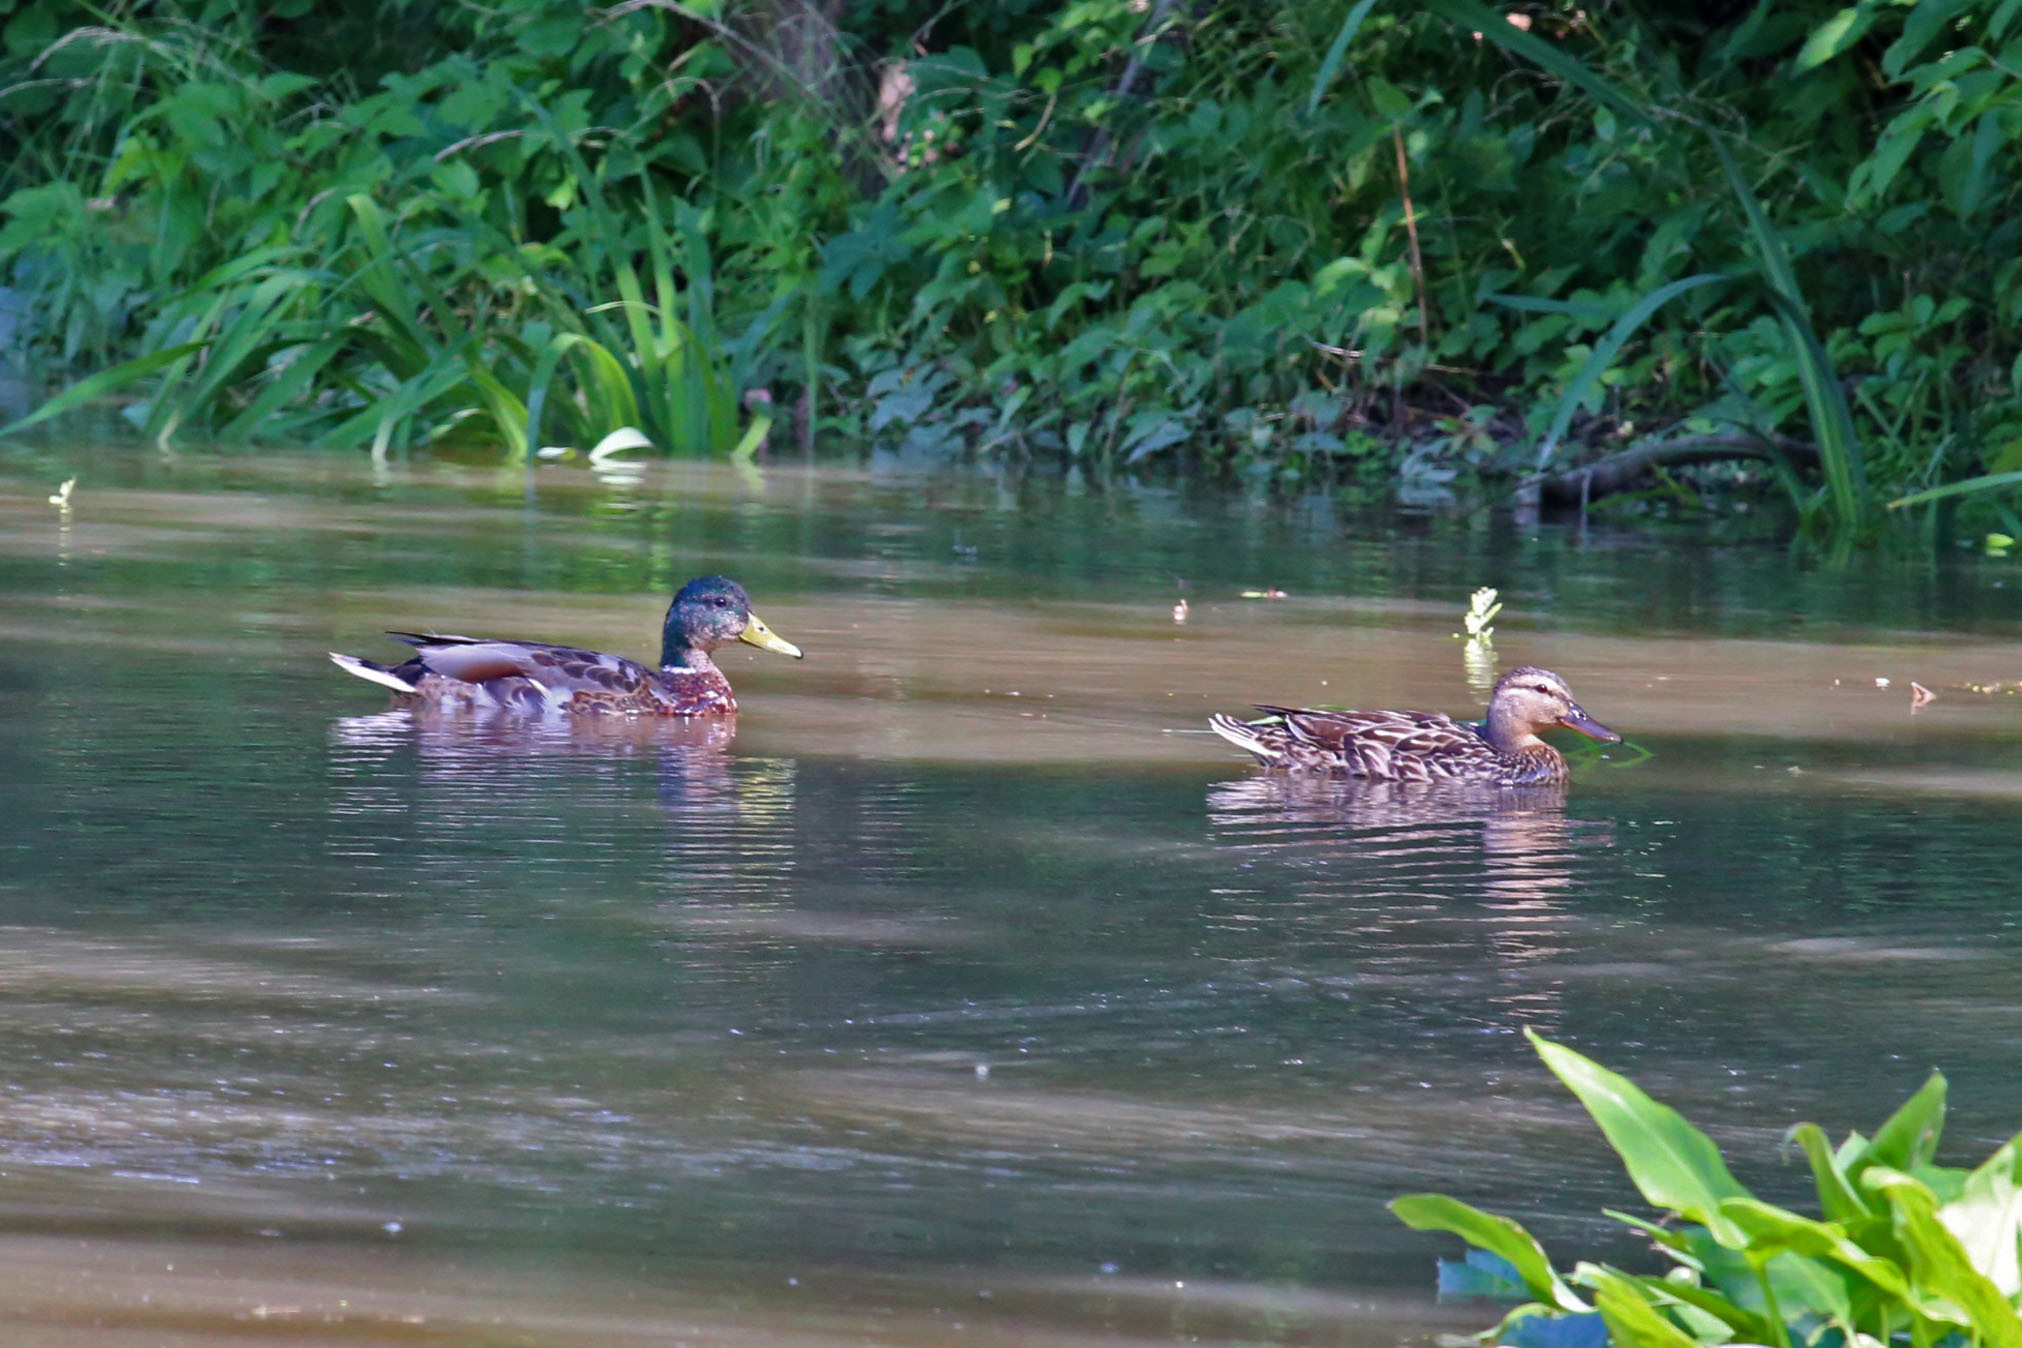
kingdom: Animalia
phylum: Chordata
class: Aves
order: Anseriformes
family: Anatidae
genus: Anas
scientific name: Anas platyrhynchos
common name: Mallard
